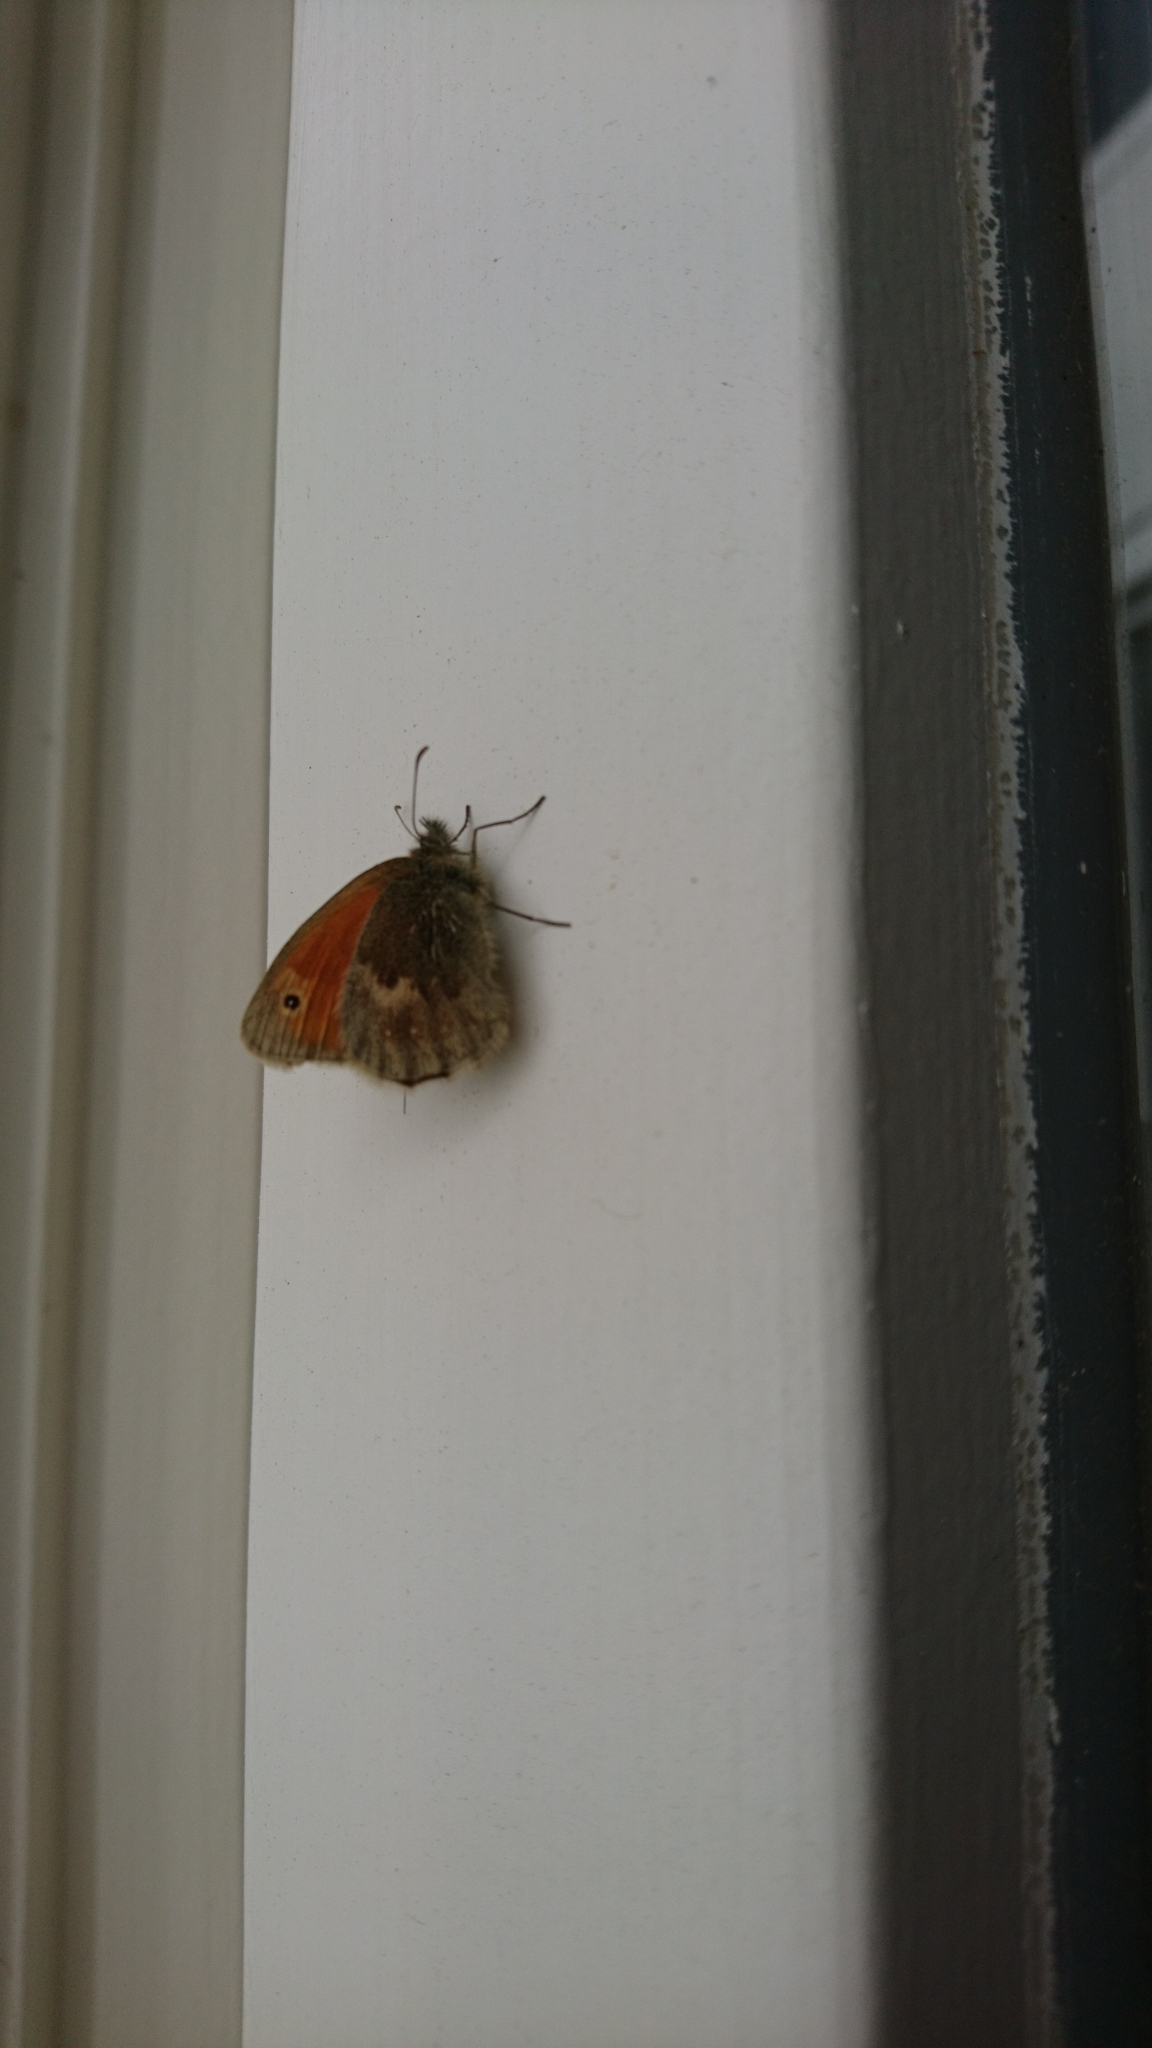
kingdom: Animalia
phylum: Arthropoda
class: Insecta
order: Lepidoptera
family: Nymphalidae
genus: Coenonympha
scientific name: Coenonympha pamphilus
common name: Small heath
